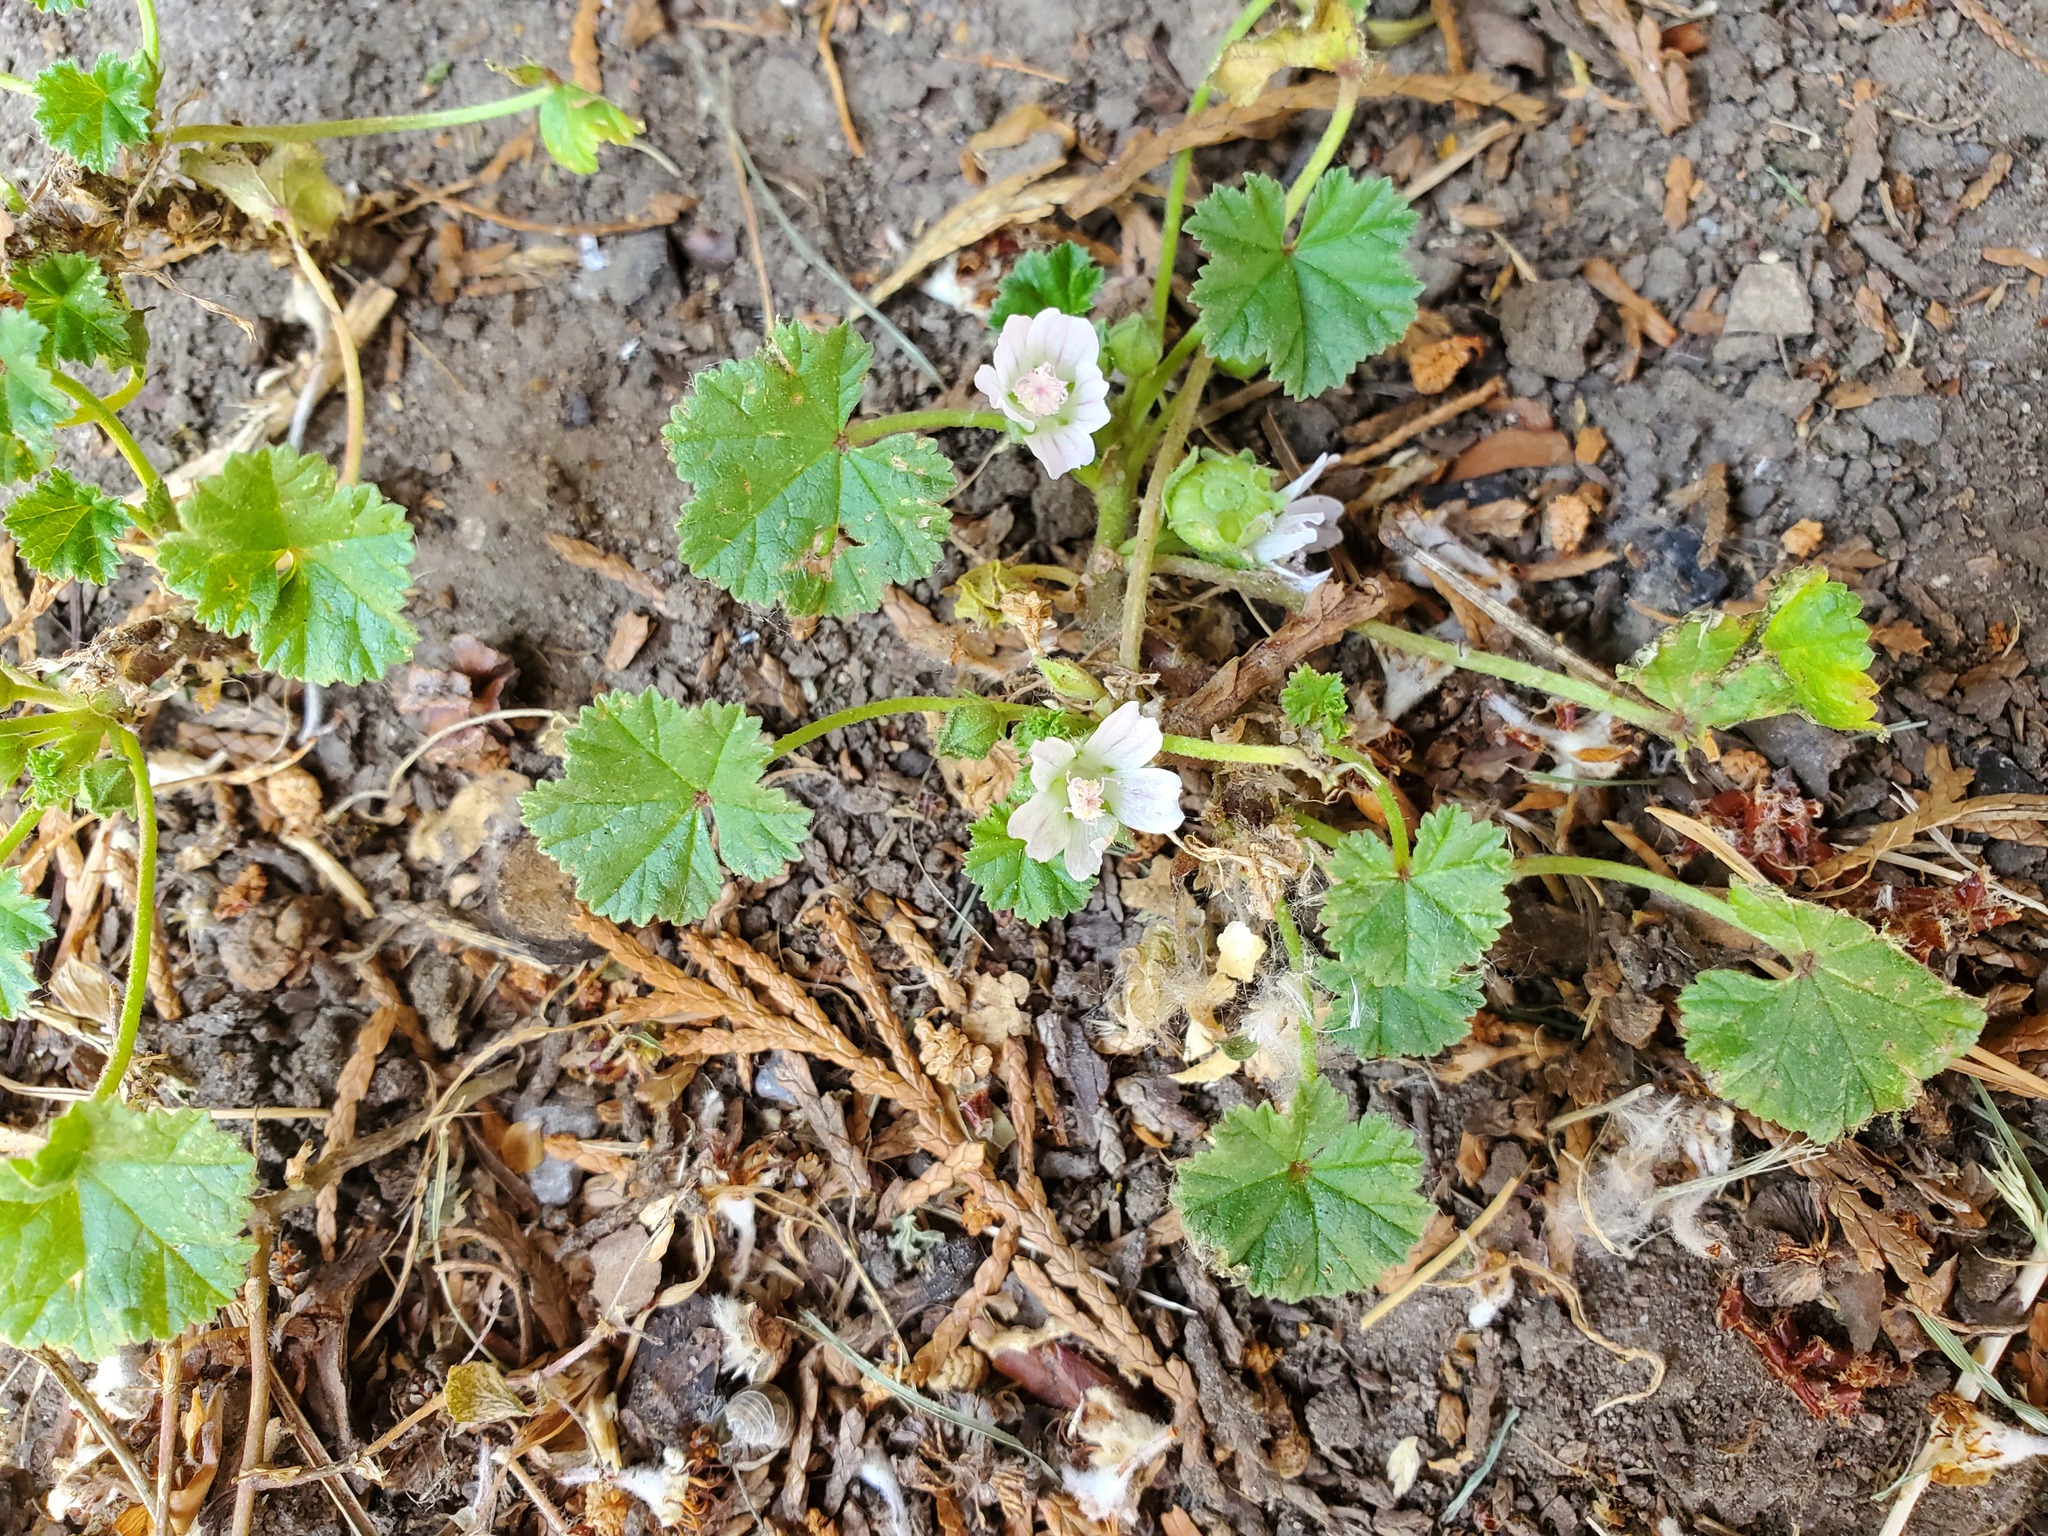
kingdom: Plantae
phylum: Tracheophyta
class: Magnoliopsida
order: Malvales
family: Malvaceae
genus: Malva
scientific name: Malva neglecta
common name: Common mallow
